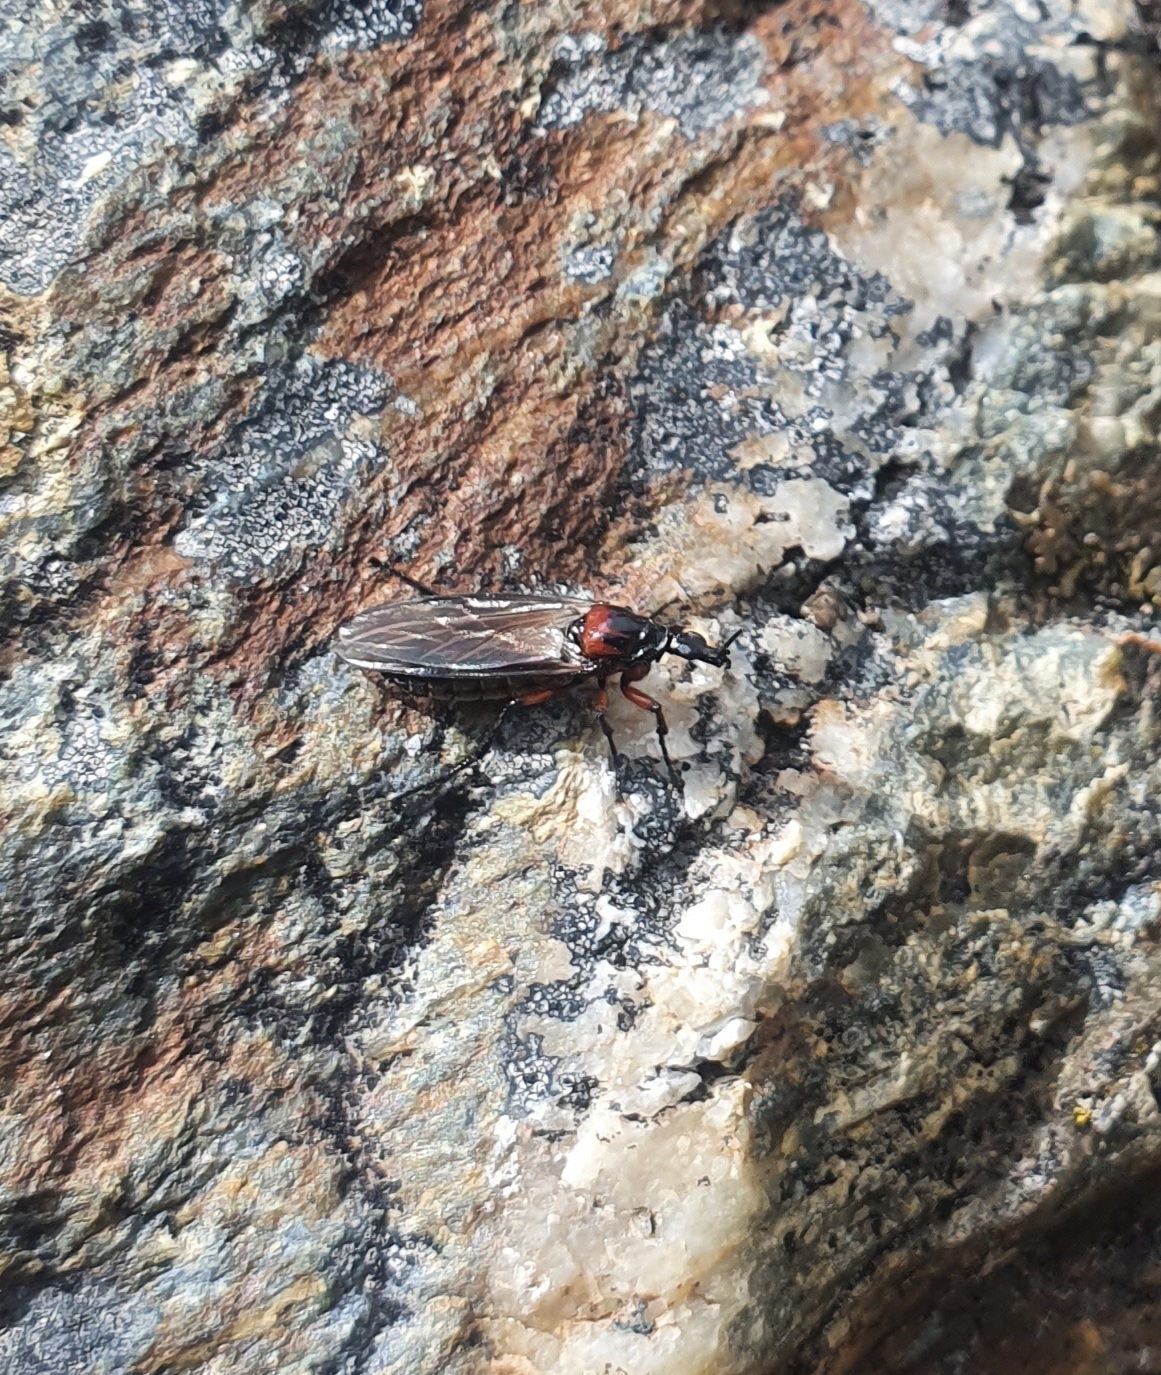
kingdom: Animalia
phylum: Arthropoda
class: Insecta
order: Diptera
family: Bibionidae
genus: Dilophus
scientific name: Dilophus nigrostigma
